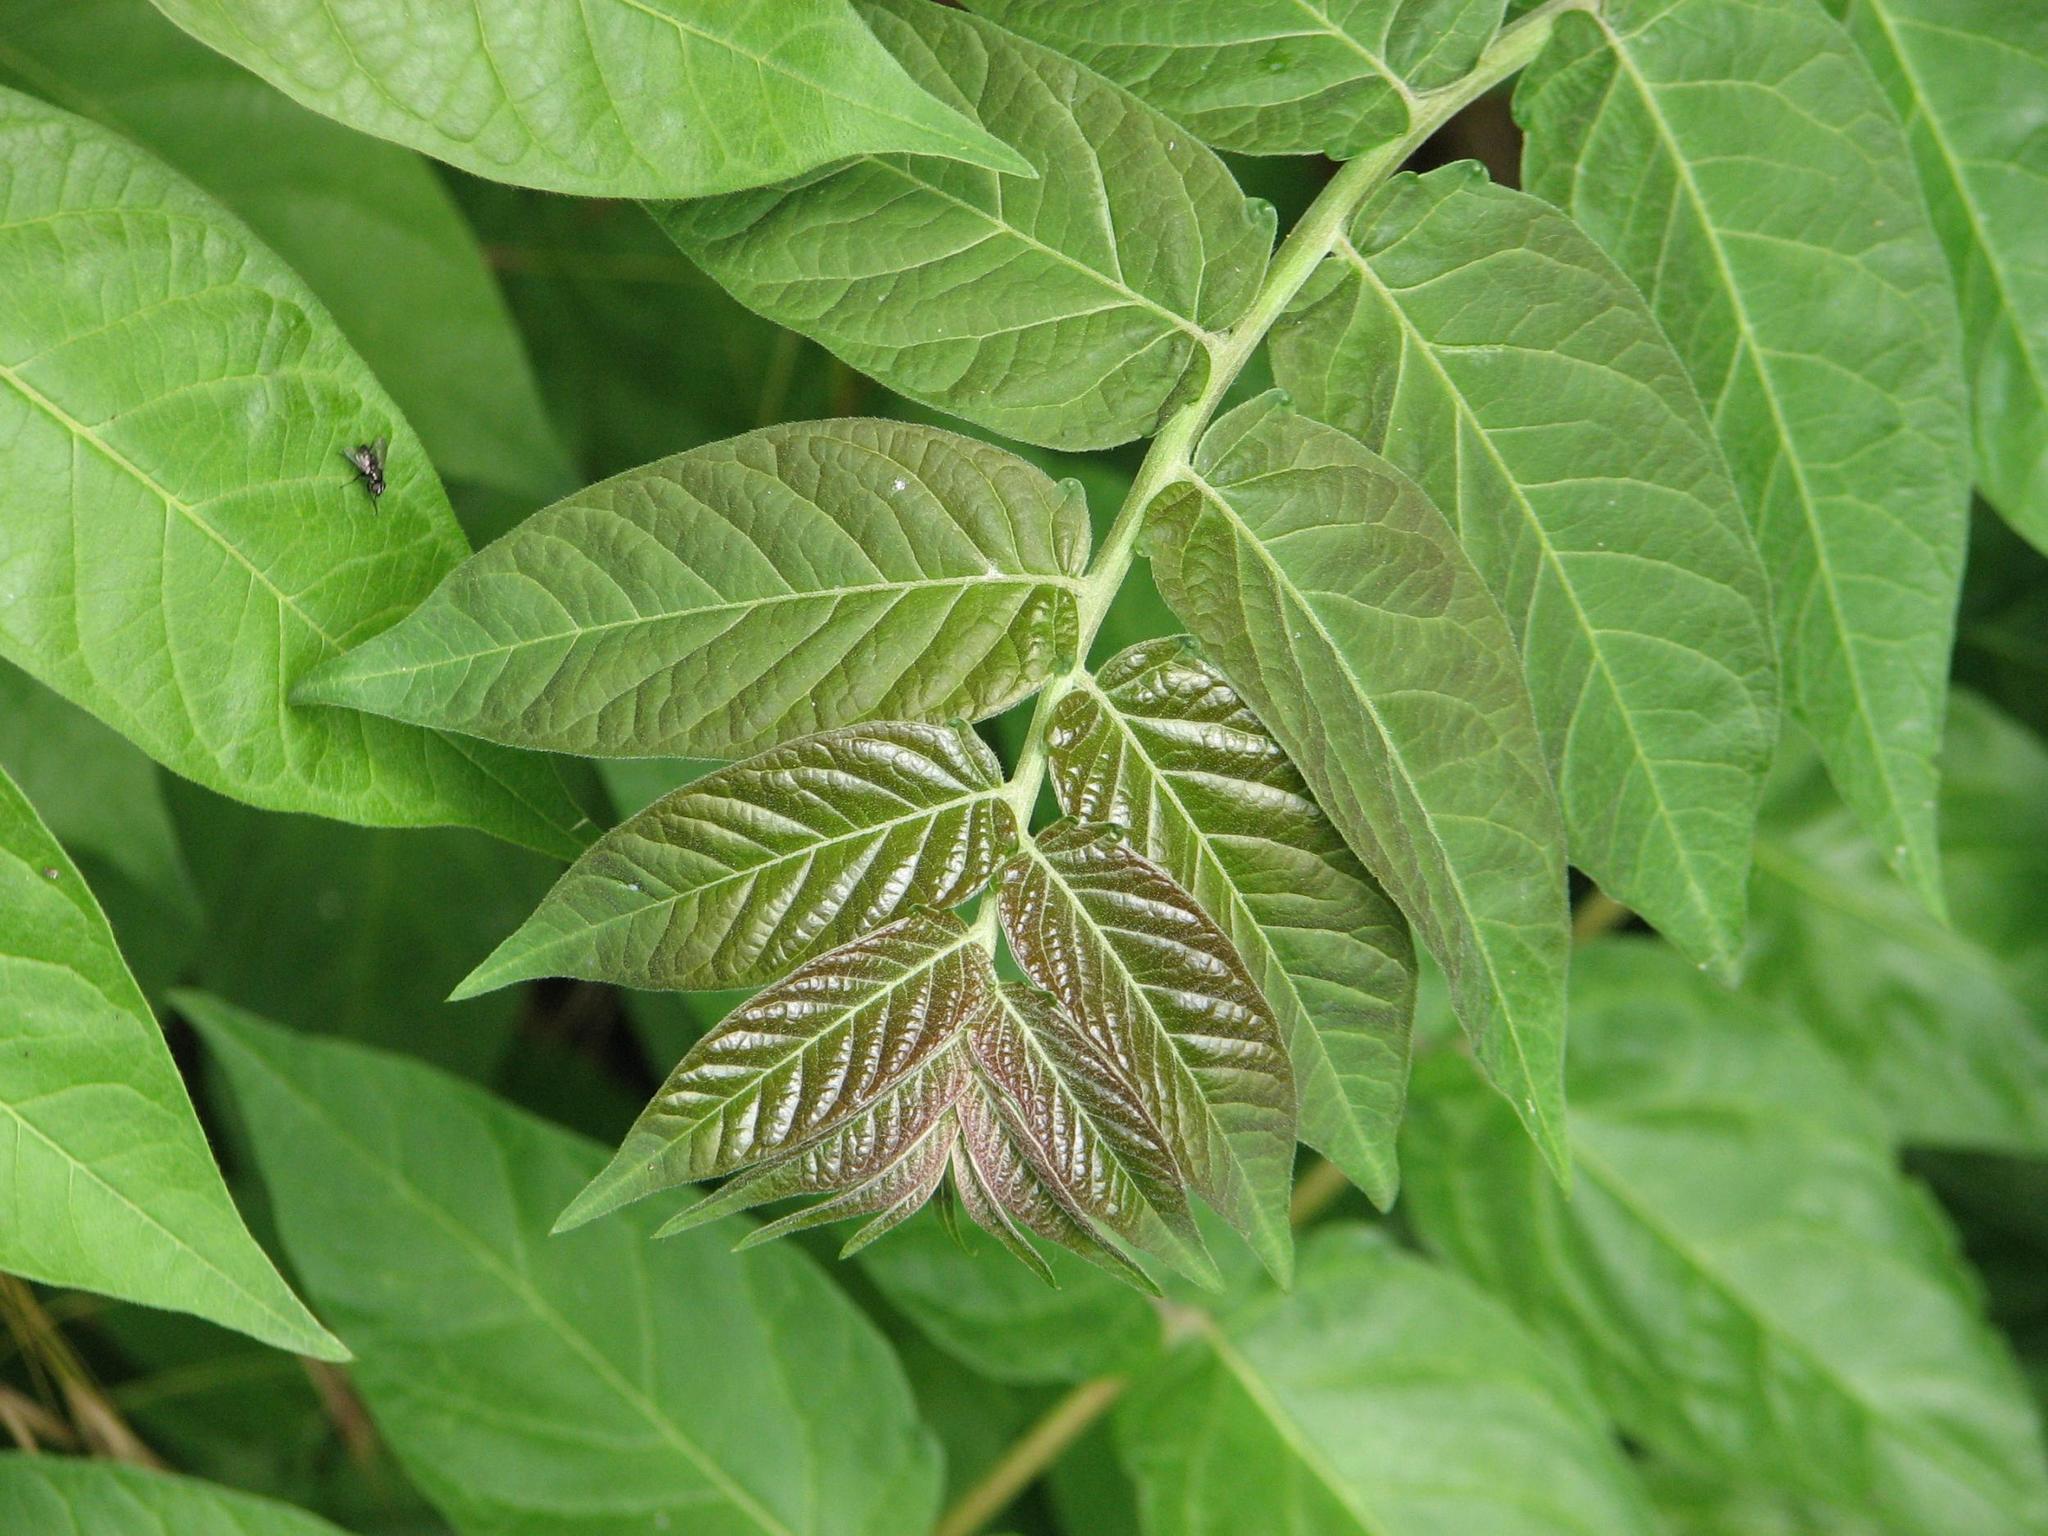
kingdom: Plantae
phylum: Tracheophyta
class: Magnoliopsida
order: Sapindales
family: Simaroubaceae
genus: Ailanthus
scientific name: Ailanthus altissima
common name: Tree-of-heaven
